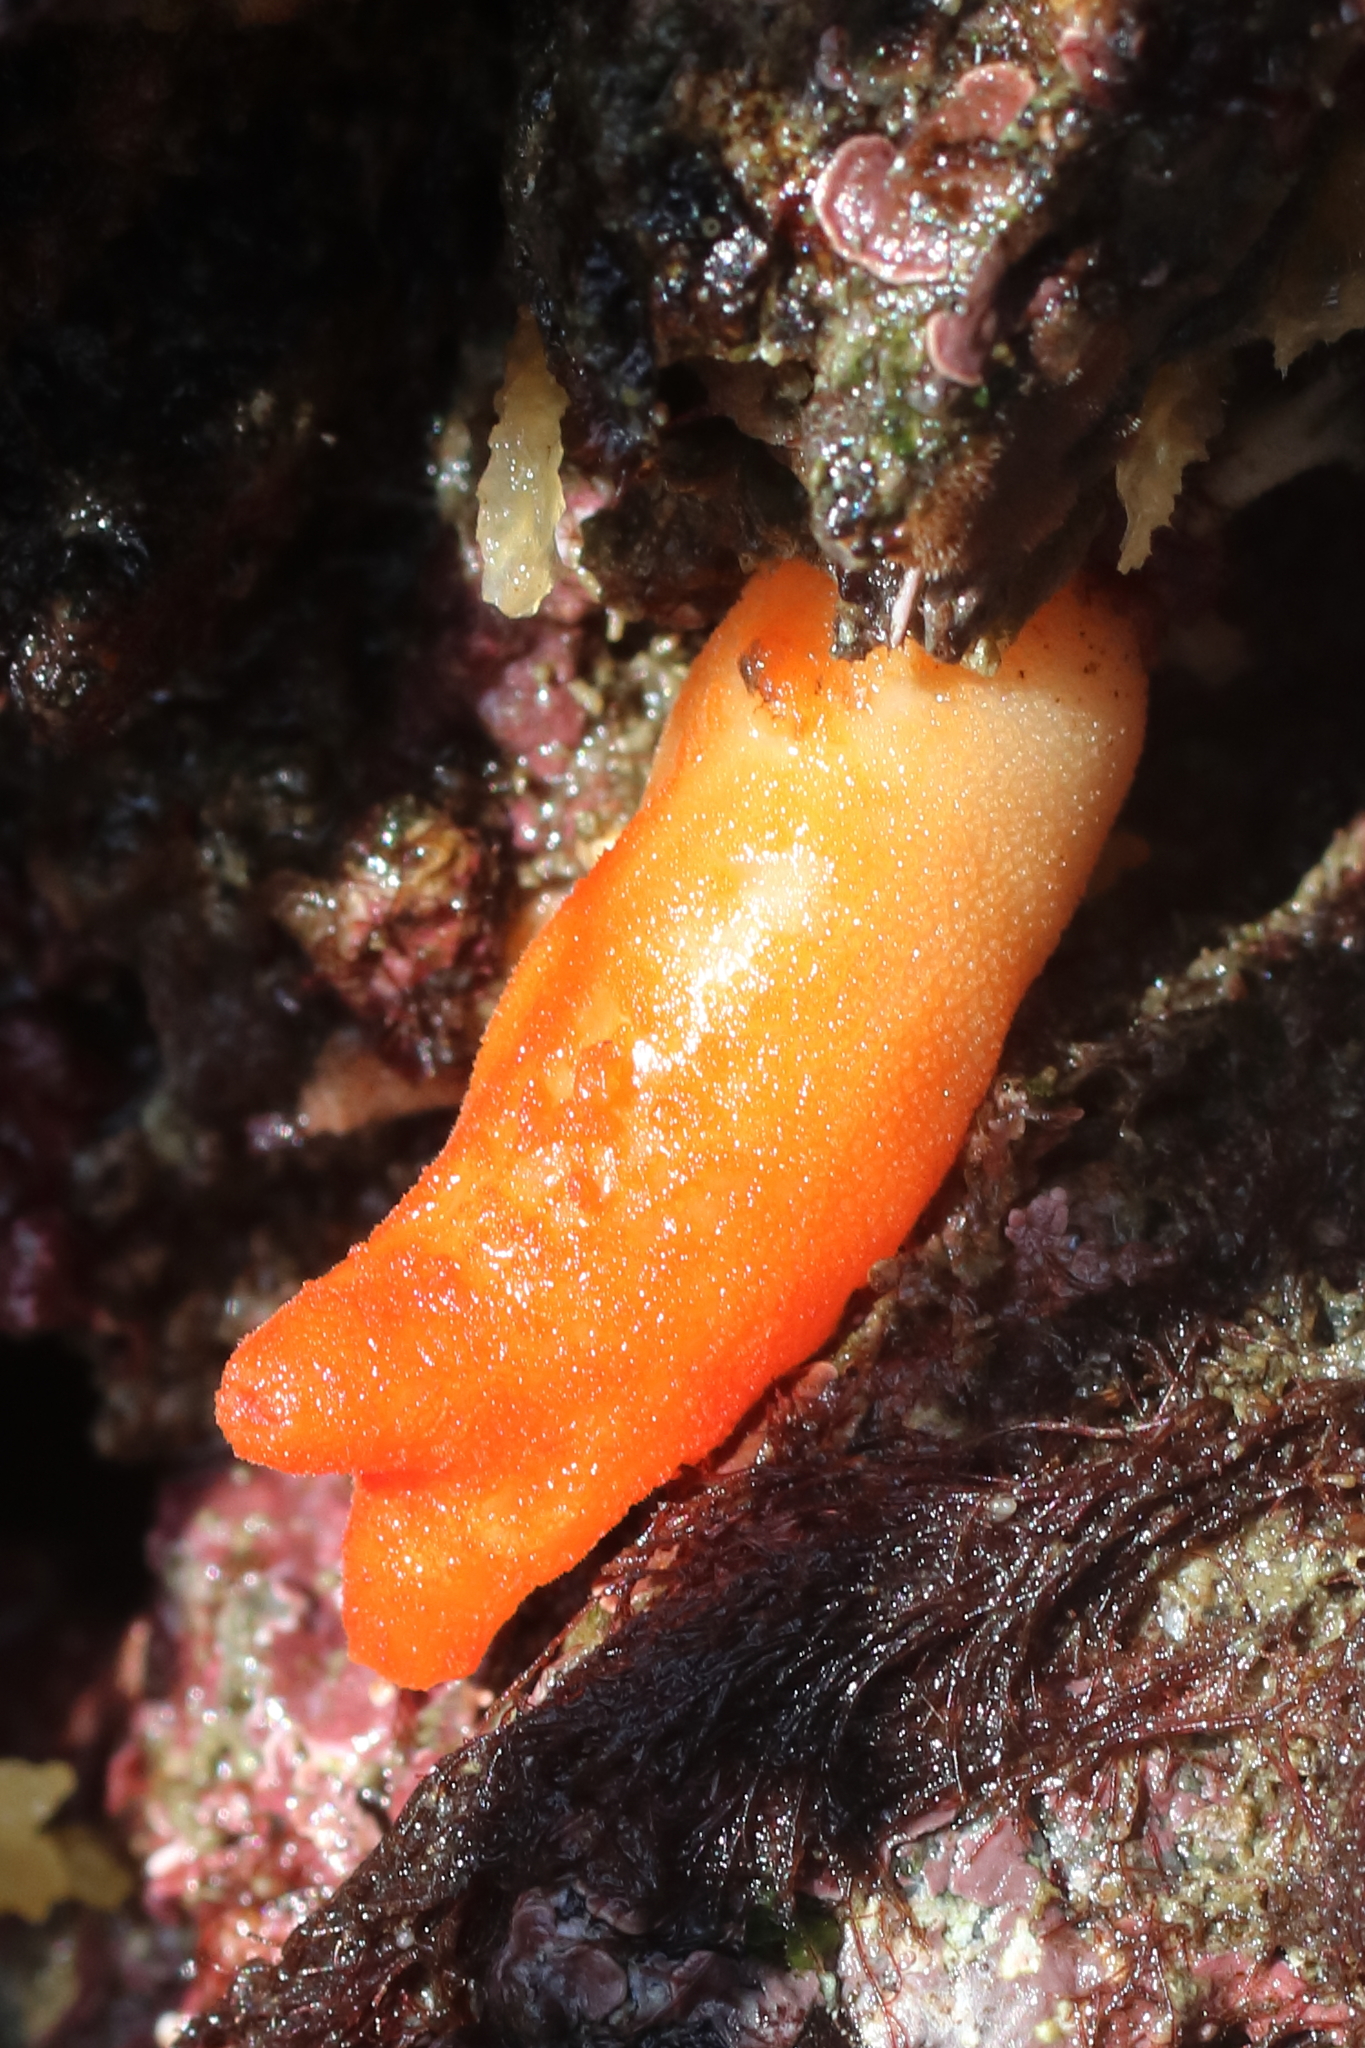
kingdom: Animalia
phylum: Chordata
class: Ascidiacea
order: Stolidobranchia
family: Pyuridae
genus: Halocynthia
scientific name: Halocynthia aurantium
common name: Sea peach
